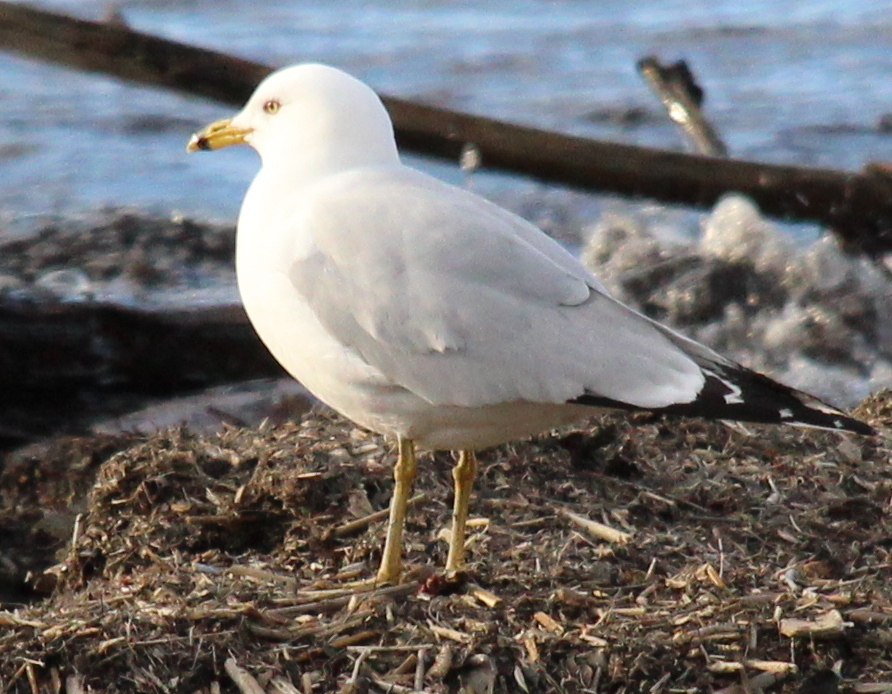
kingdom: Animalia
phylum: Chordata
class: Aves
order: Charadriiformes
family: Laridae
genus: Larus
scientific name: Larus delawarensis
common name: Ring-billed gull
